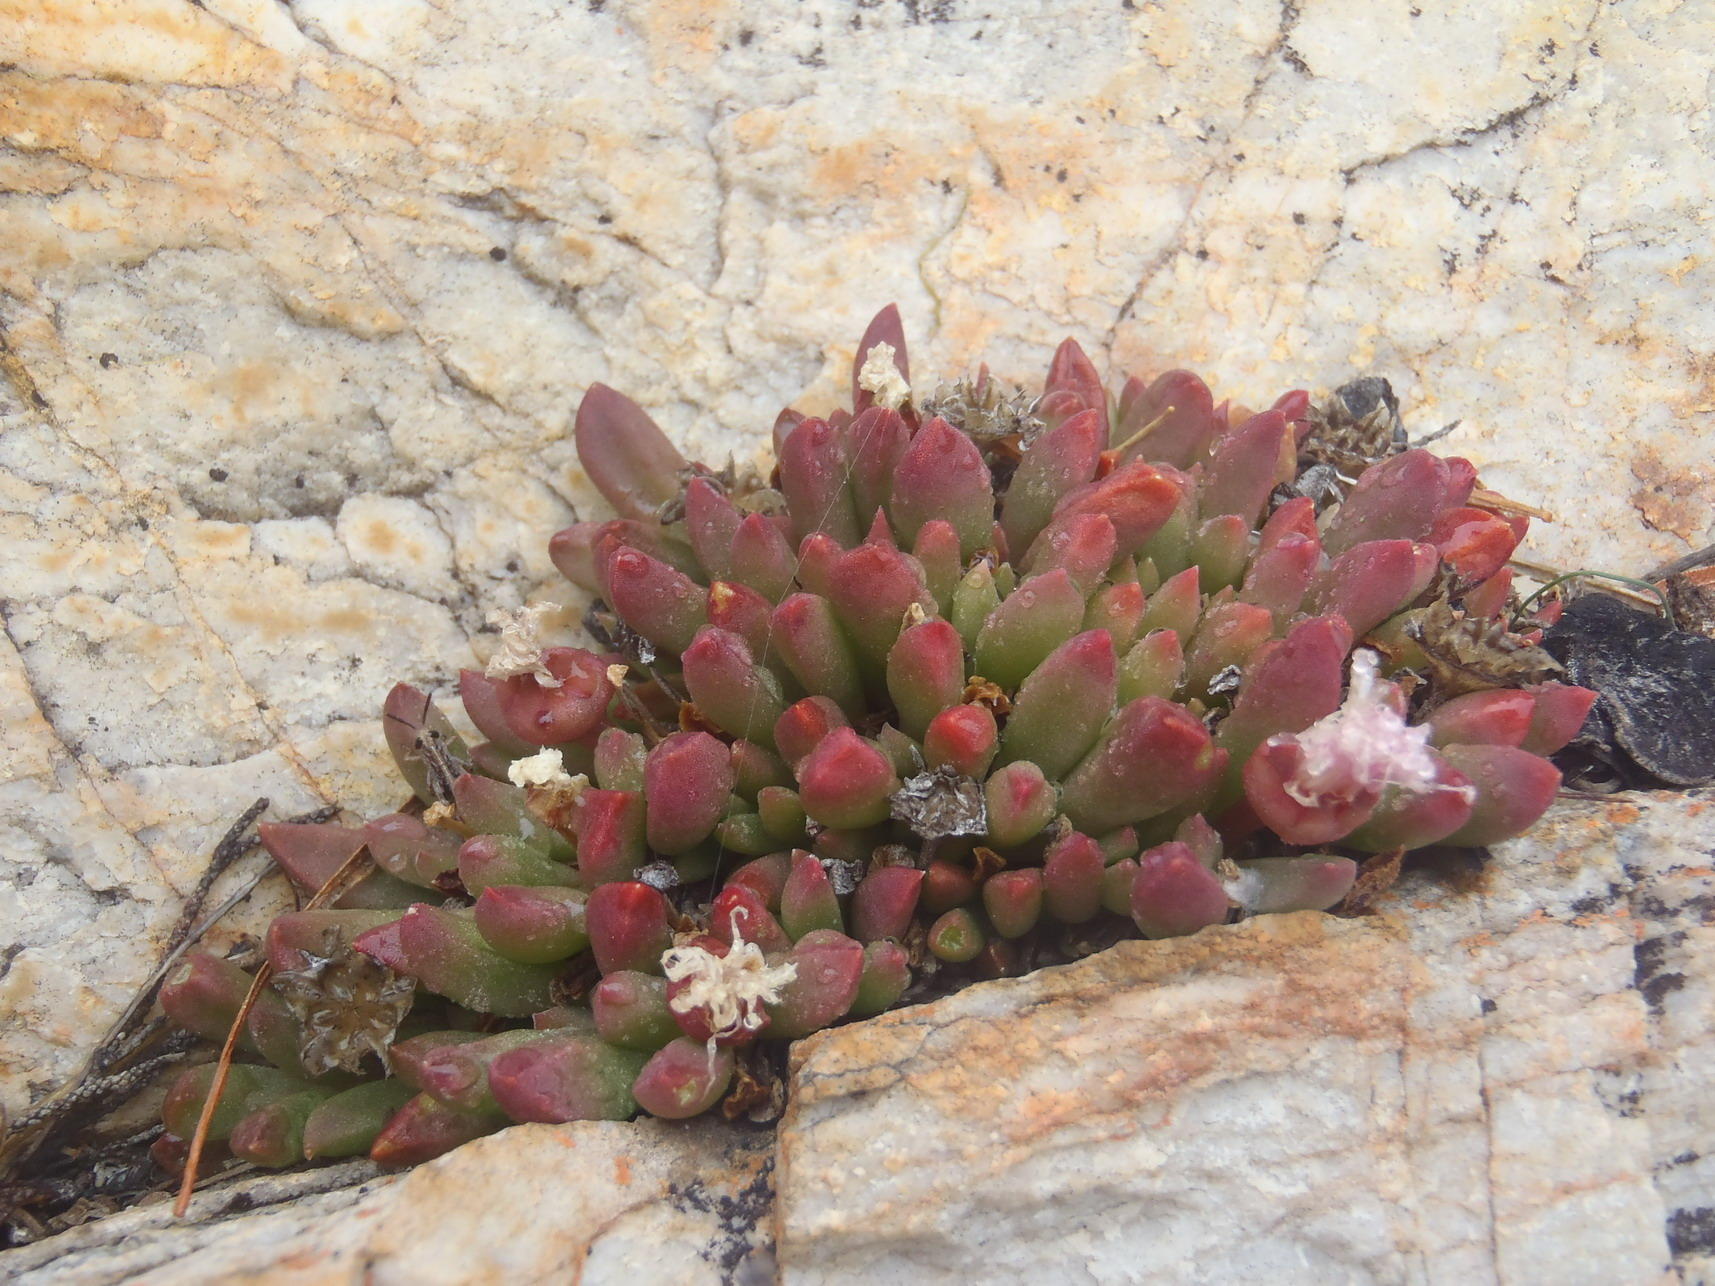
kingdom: Plantae
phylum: Tracheophyta
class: Magnoliopsida
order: Caryophyllales
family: Aizoaceae
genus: Delosperma
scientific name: Delosperma esterhuyseniae
